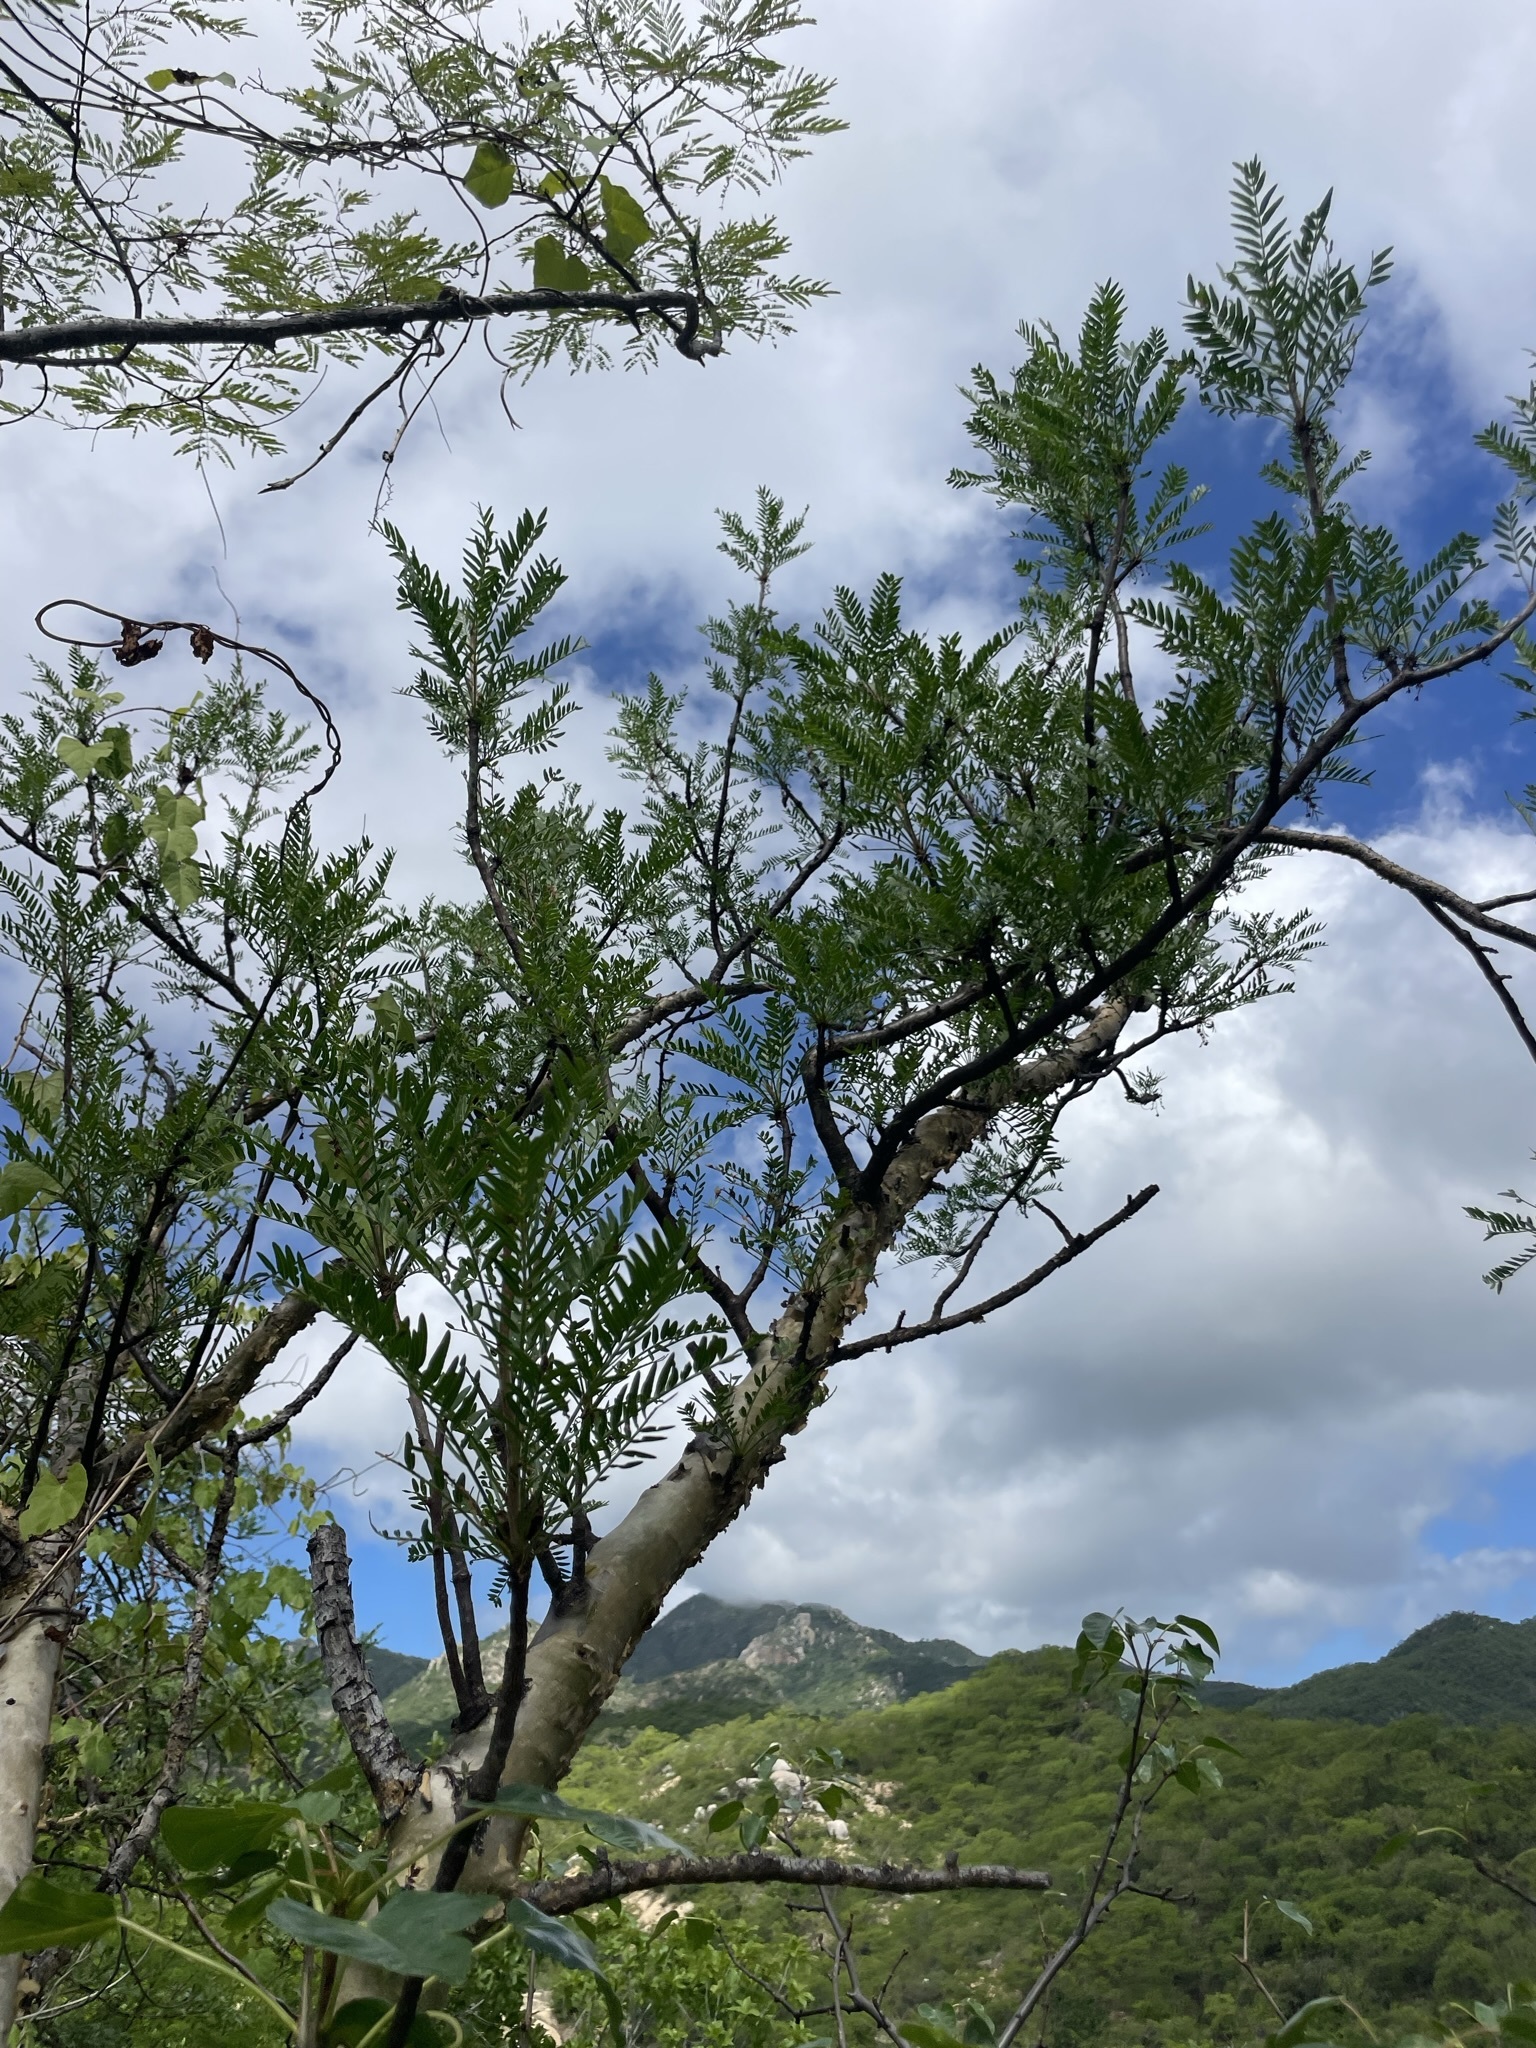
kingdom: Plantae
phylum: Tracheophyta
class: Magnoliopsida
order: Sapindales
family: Burseraceae
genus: Bursera
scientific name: Bursera microphylla
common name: Elephant tree
